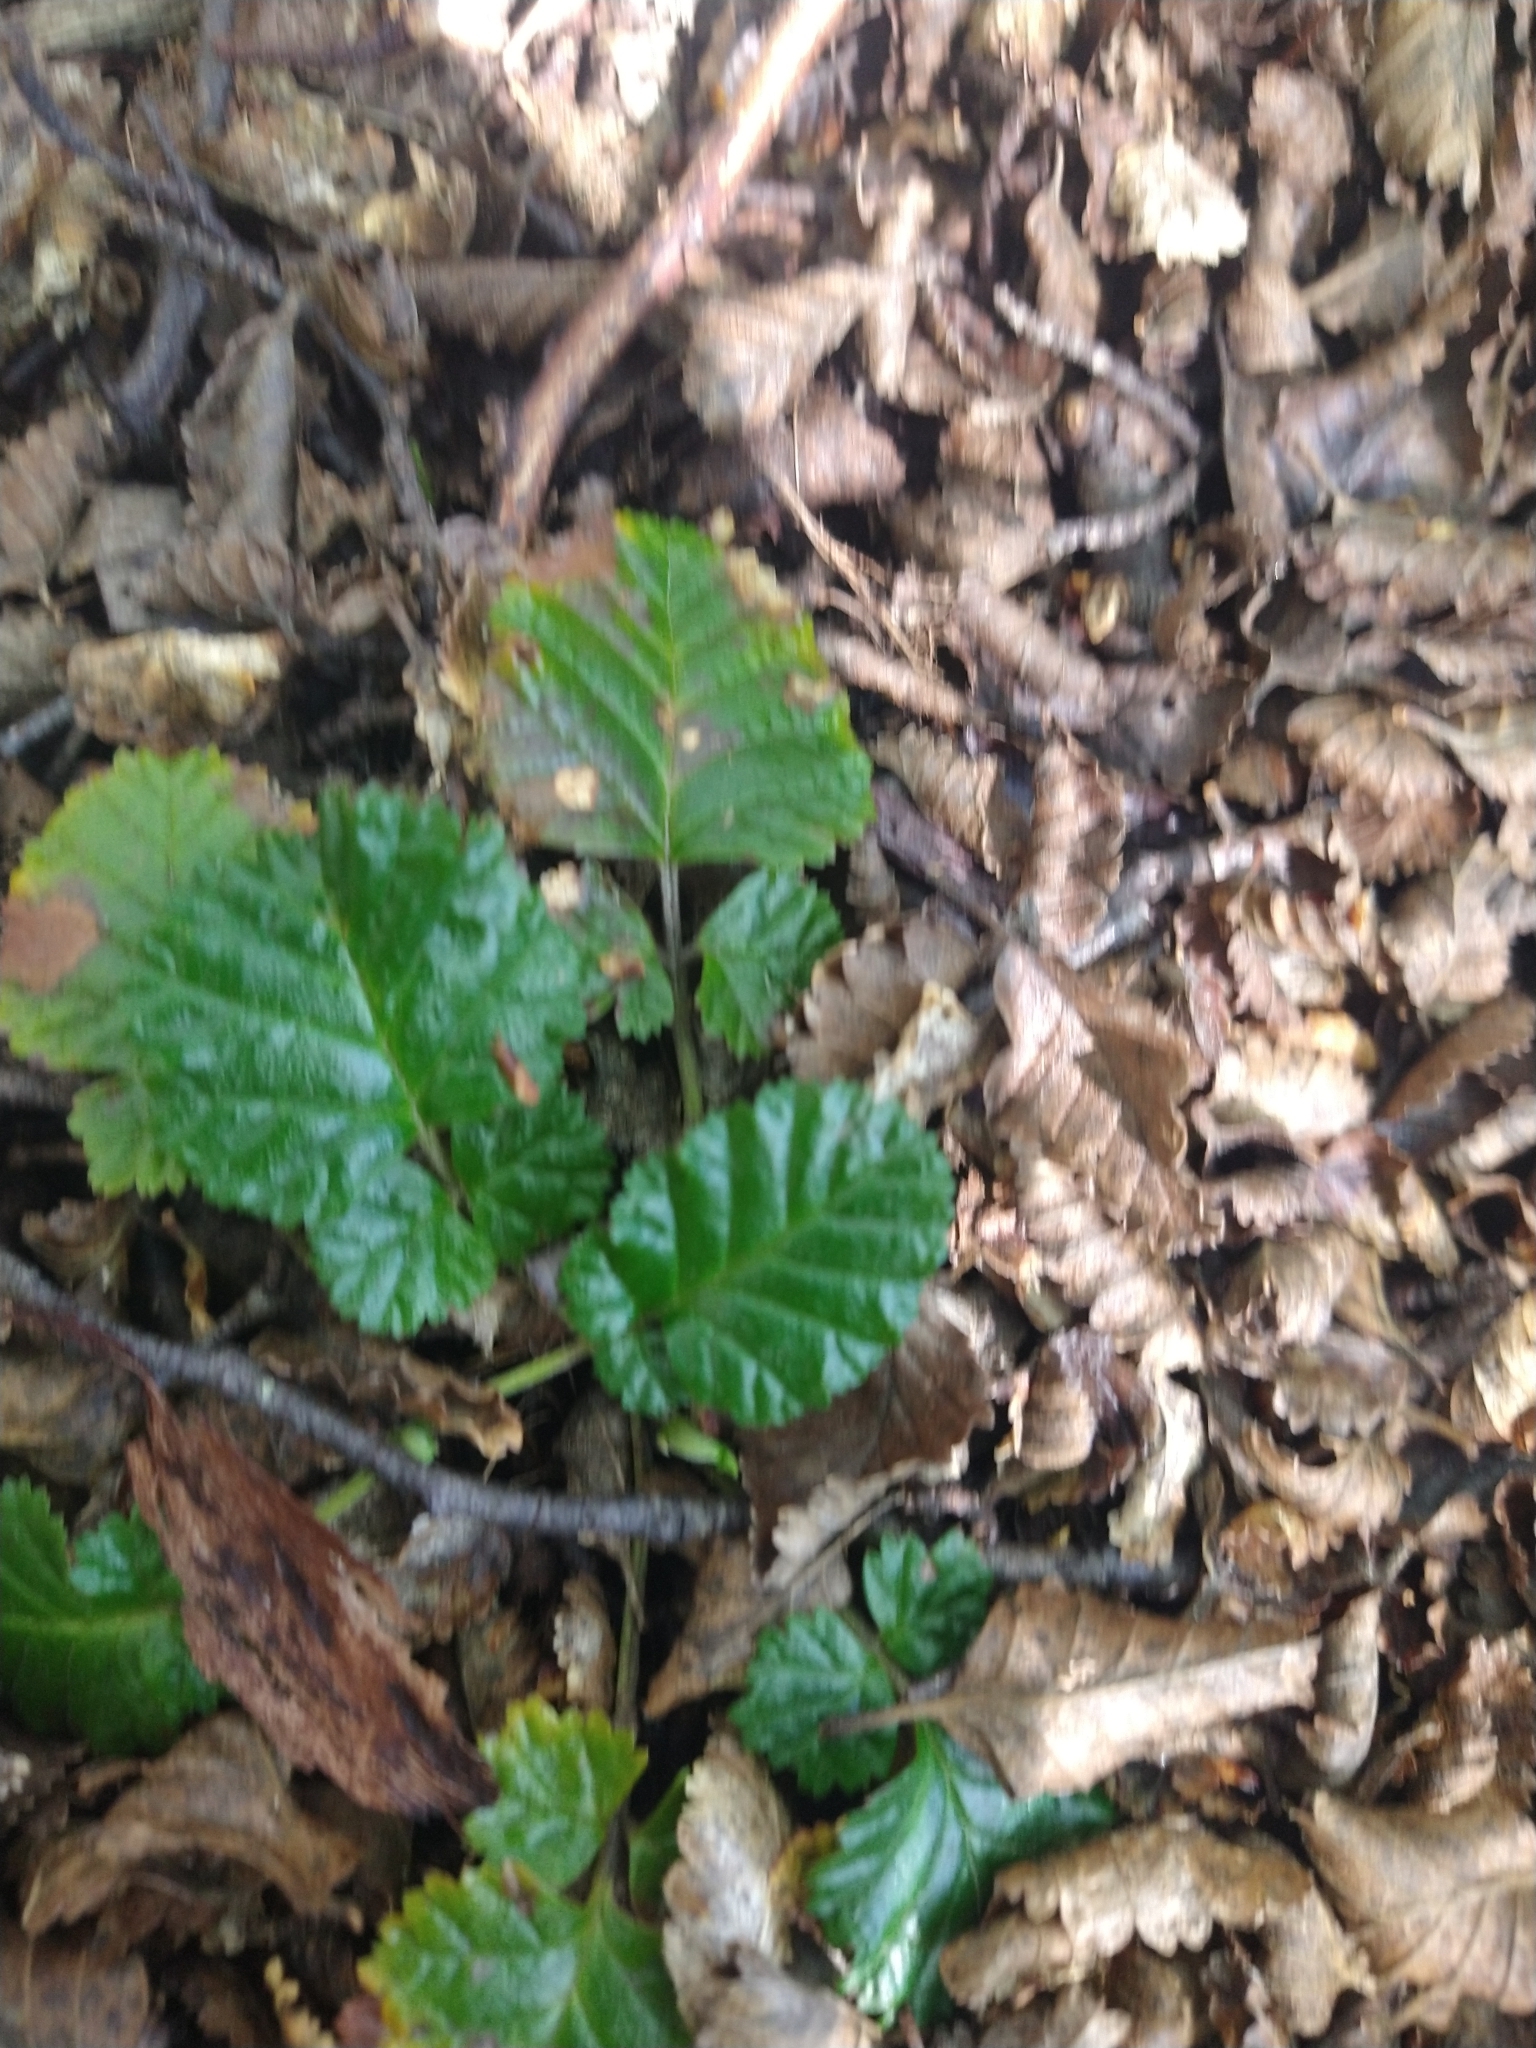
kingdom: Plantae
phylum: Tracheophyta
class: Magnoliopsida
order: Rosales
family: Rosaceae
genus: Rubus
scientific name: Rubus geoides
